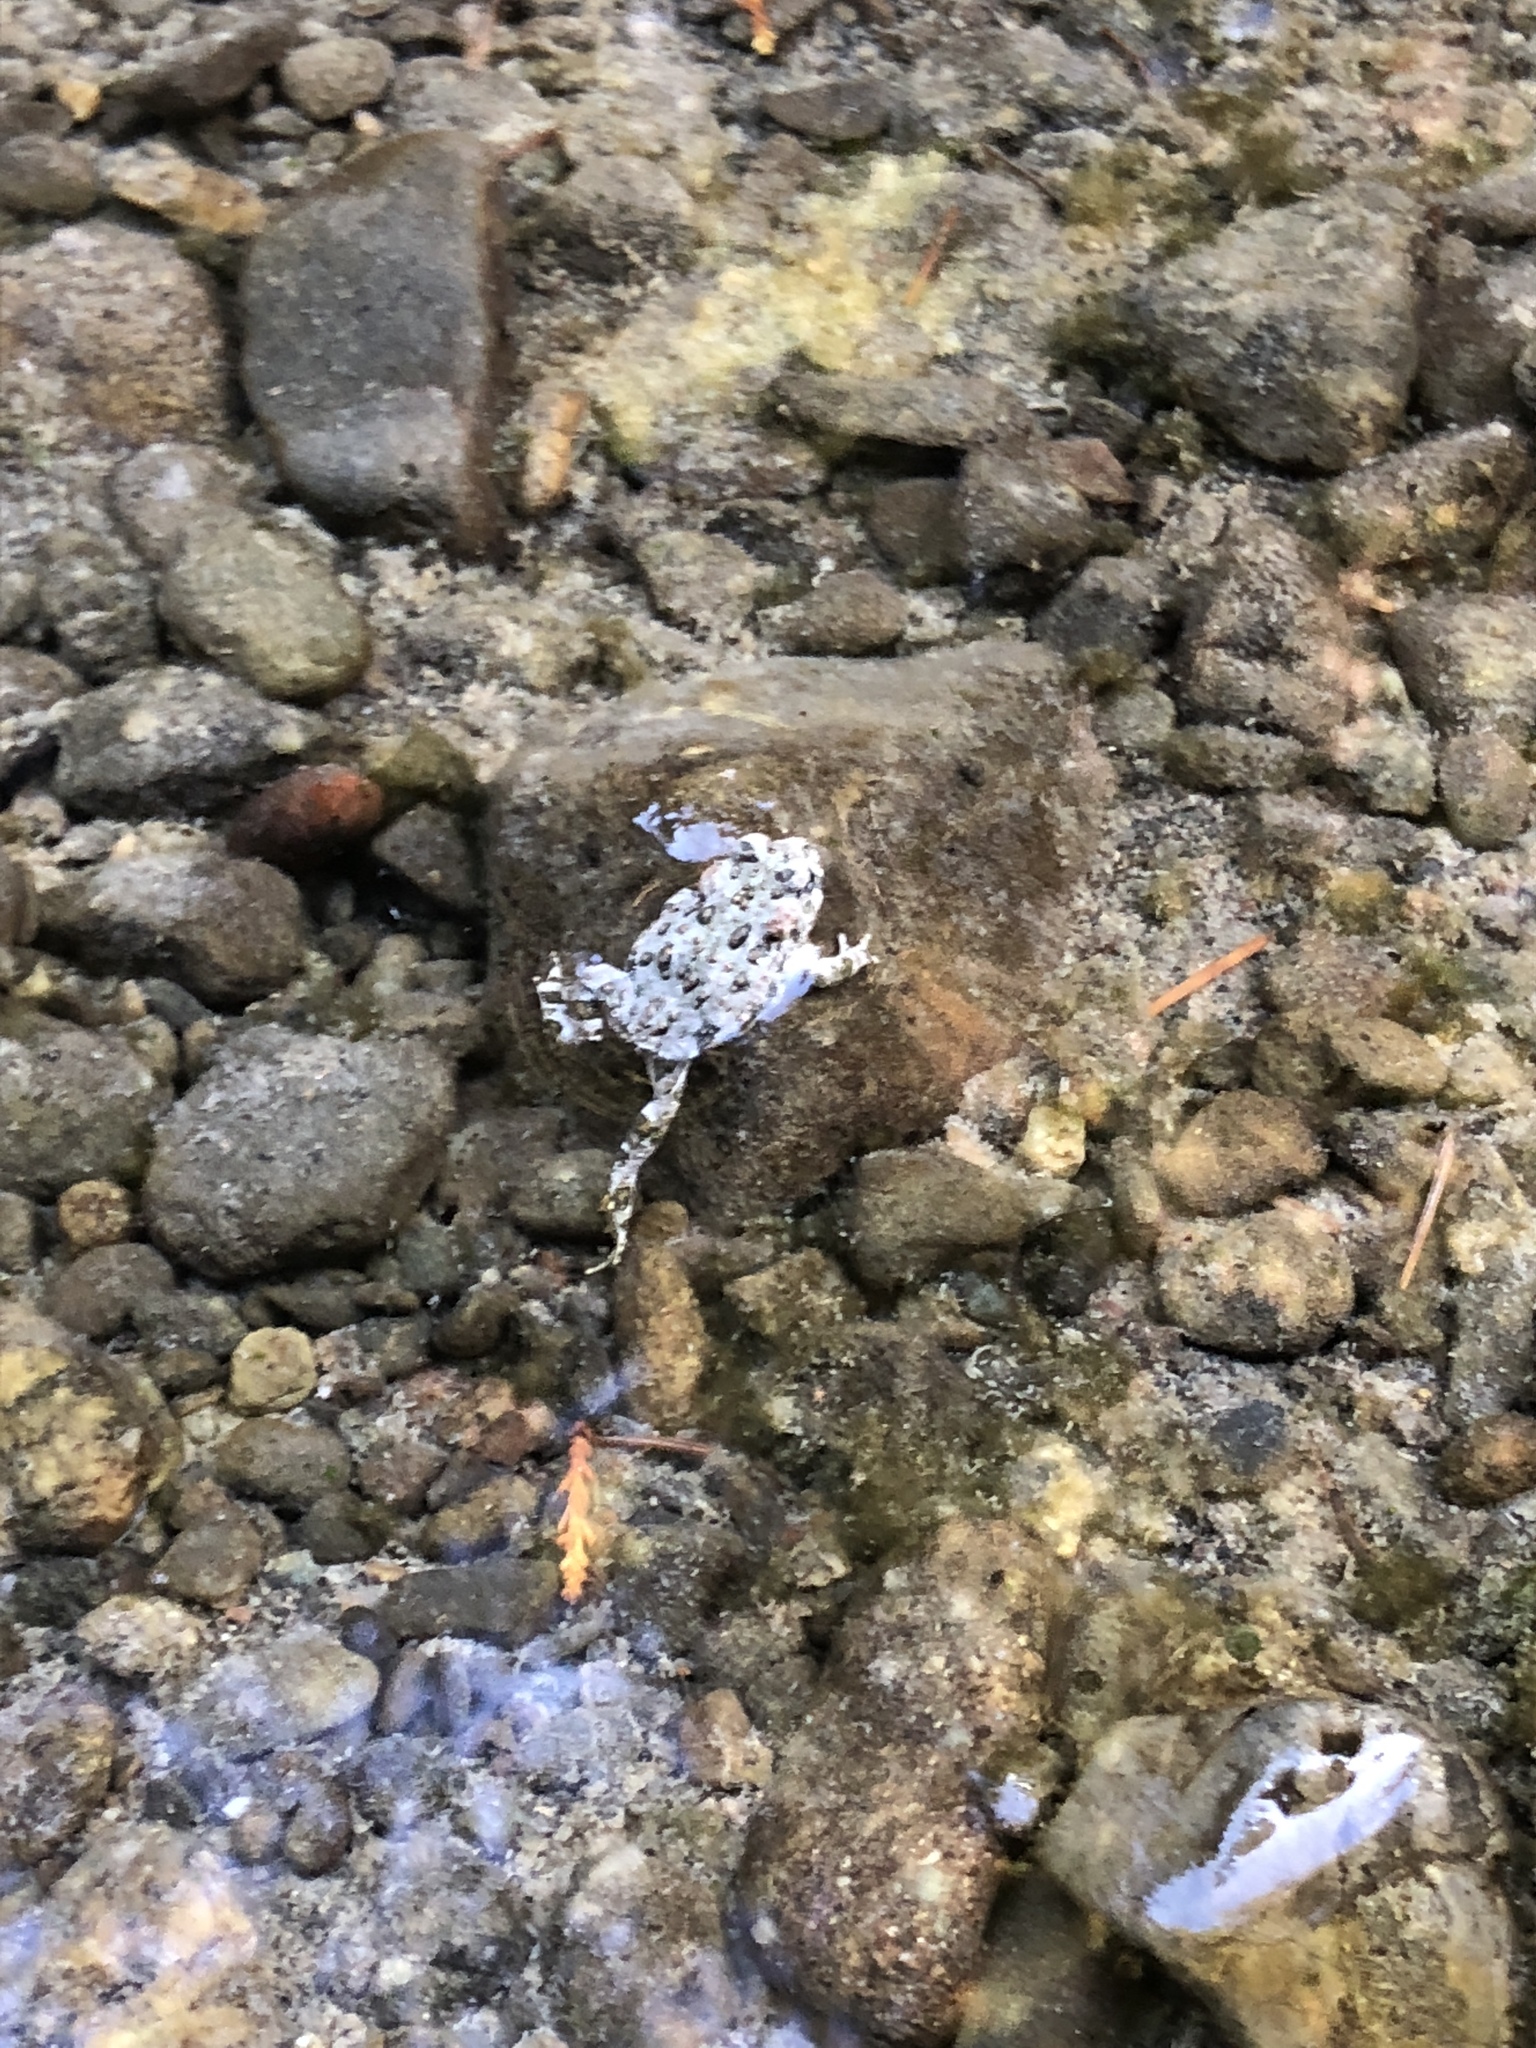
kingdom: Animalia
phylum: Chordata
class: Amphibia
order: Anura
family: Bufonidae
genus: Anaxyrus
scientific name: Anaxyrus boreas
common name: Western toad
